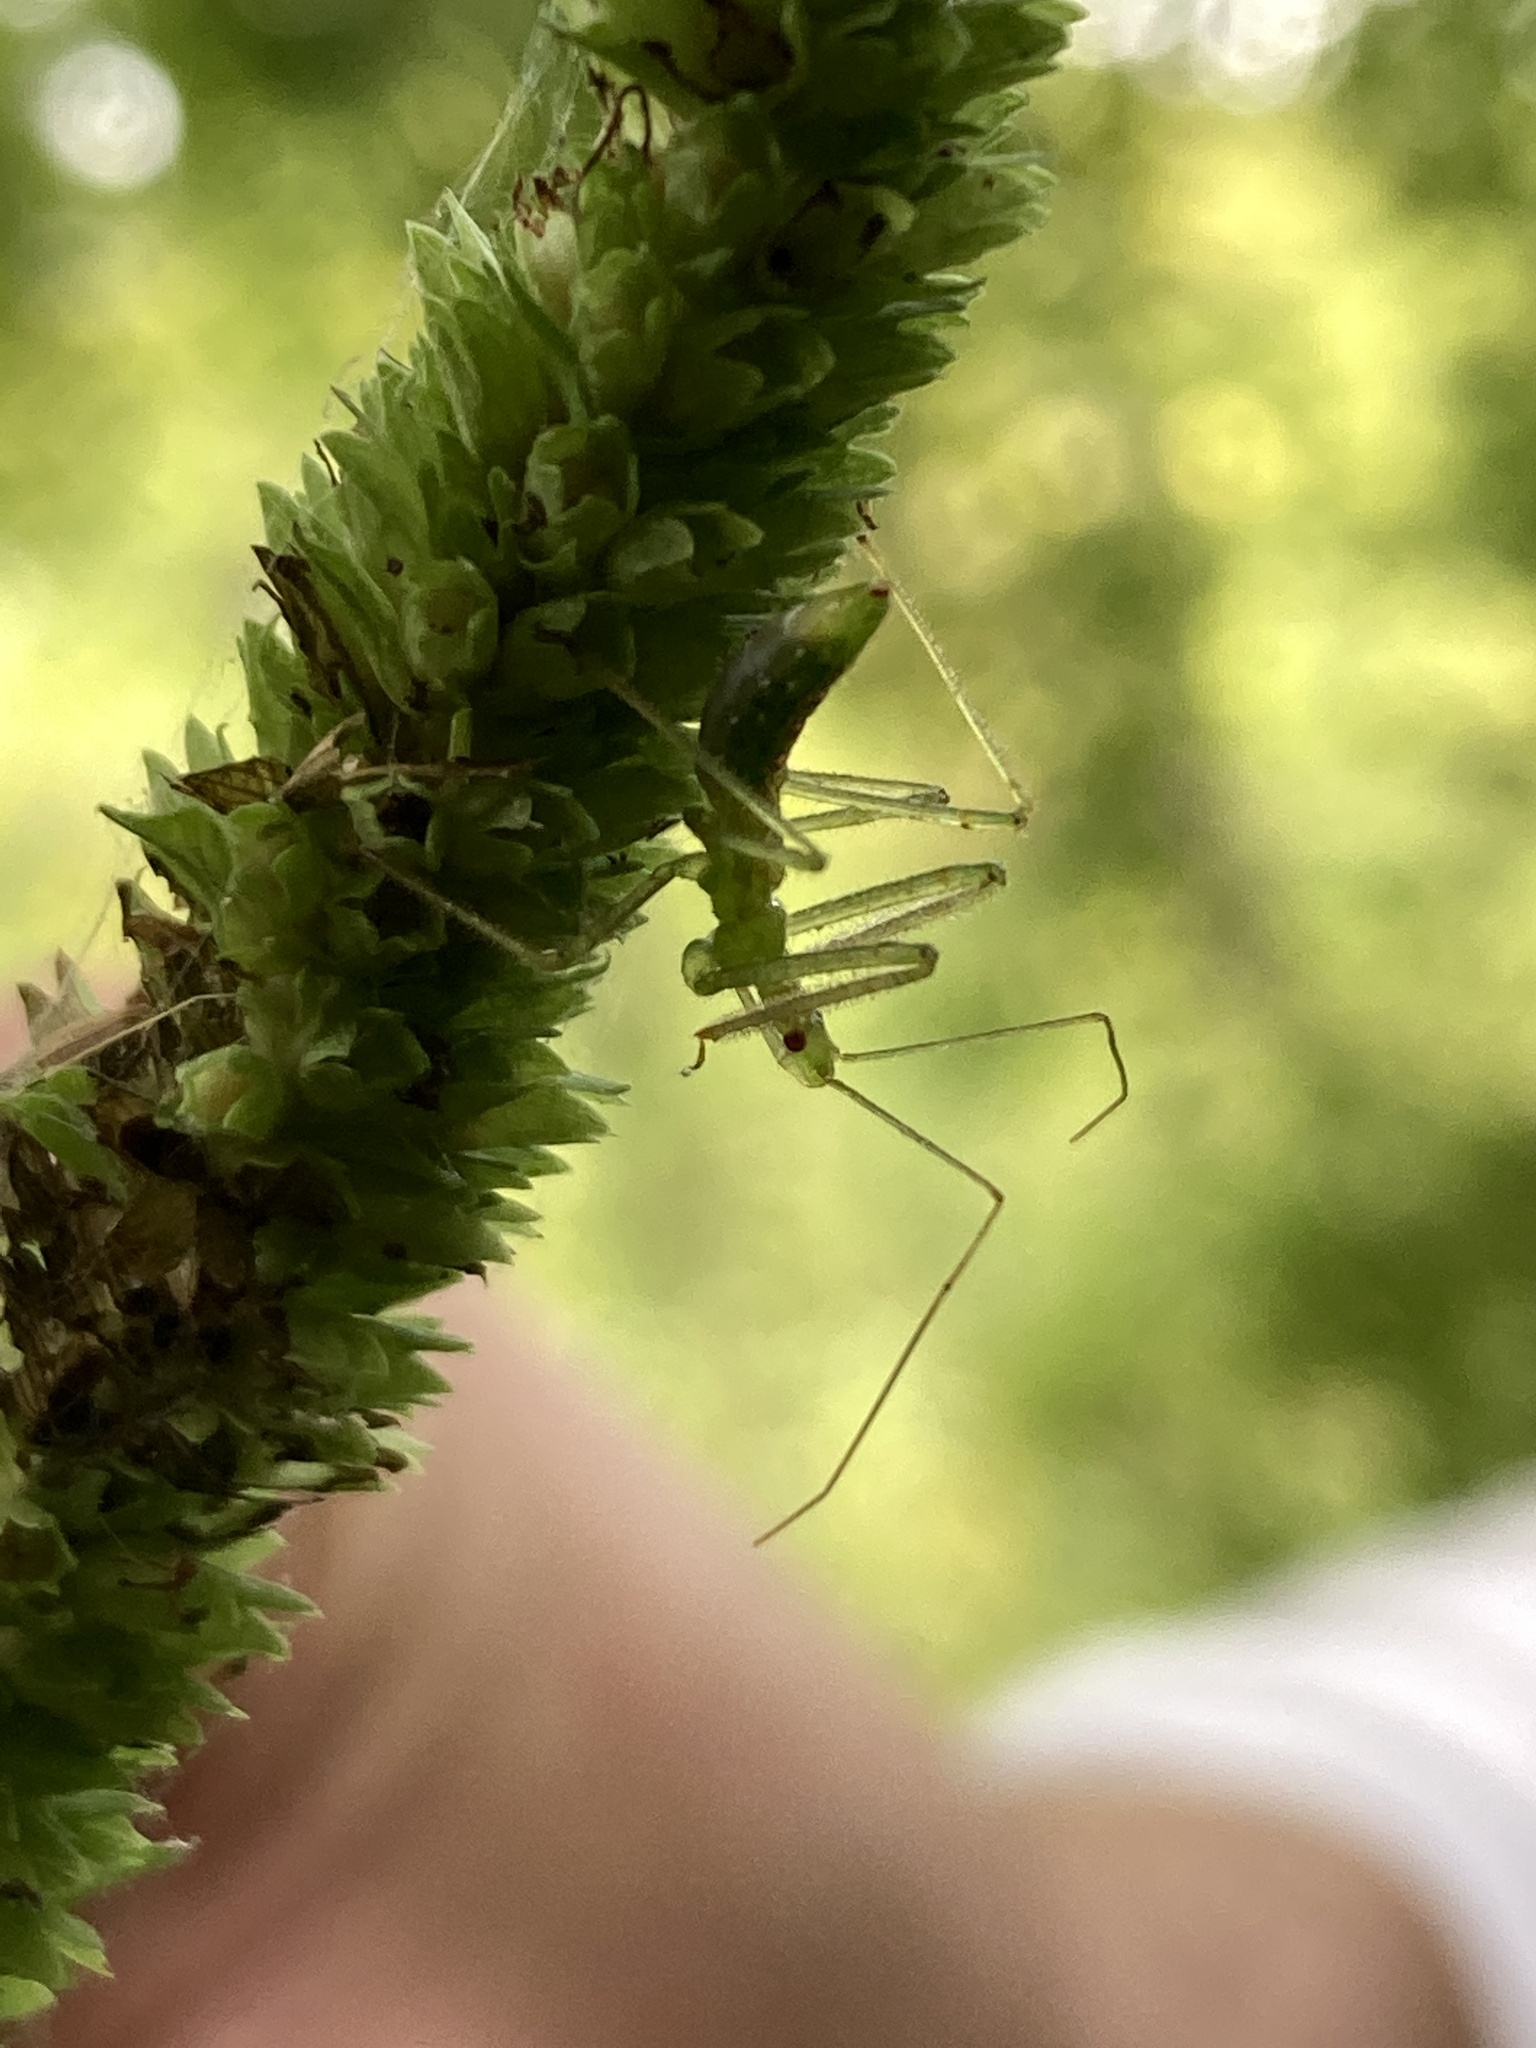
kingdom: Animalia
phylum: Arthropoda
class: Insecta
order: Hemiptera
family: Reduviidae
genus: Zelus
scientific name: Zelus luridus
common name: Pale green assassin bug
